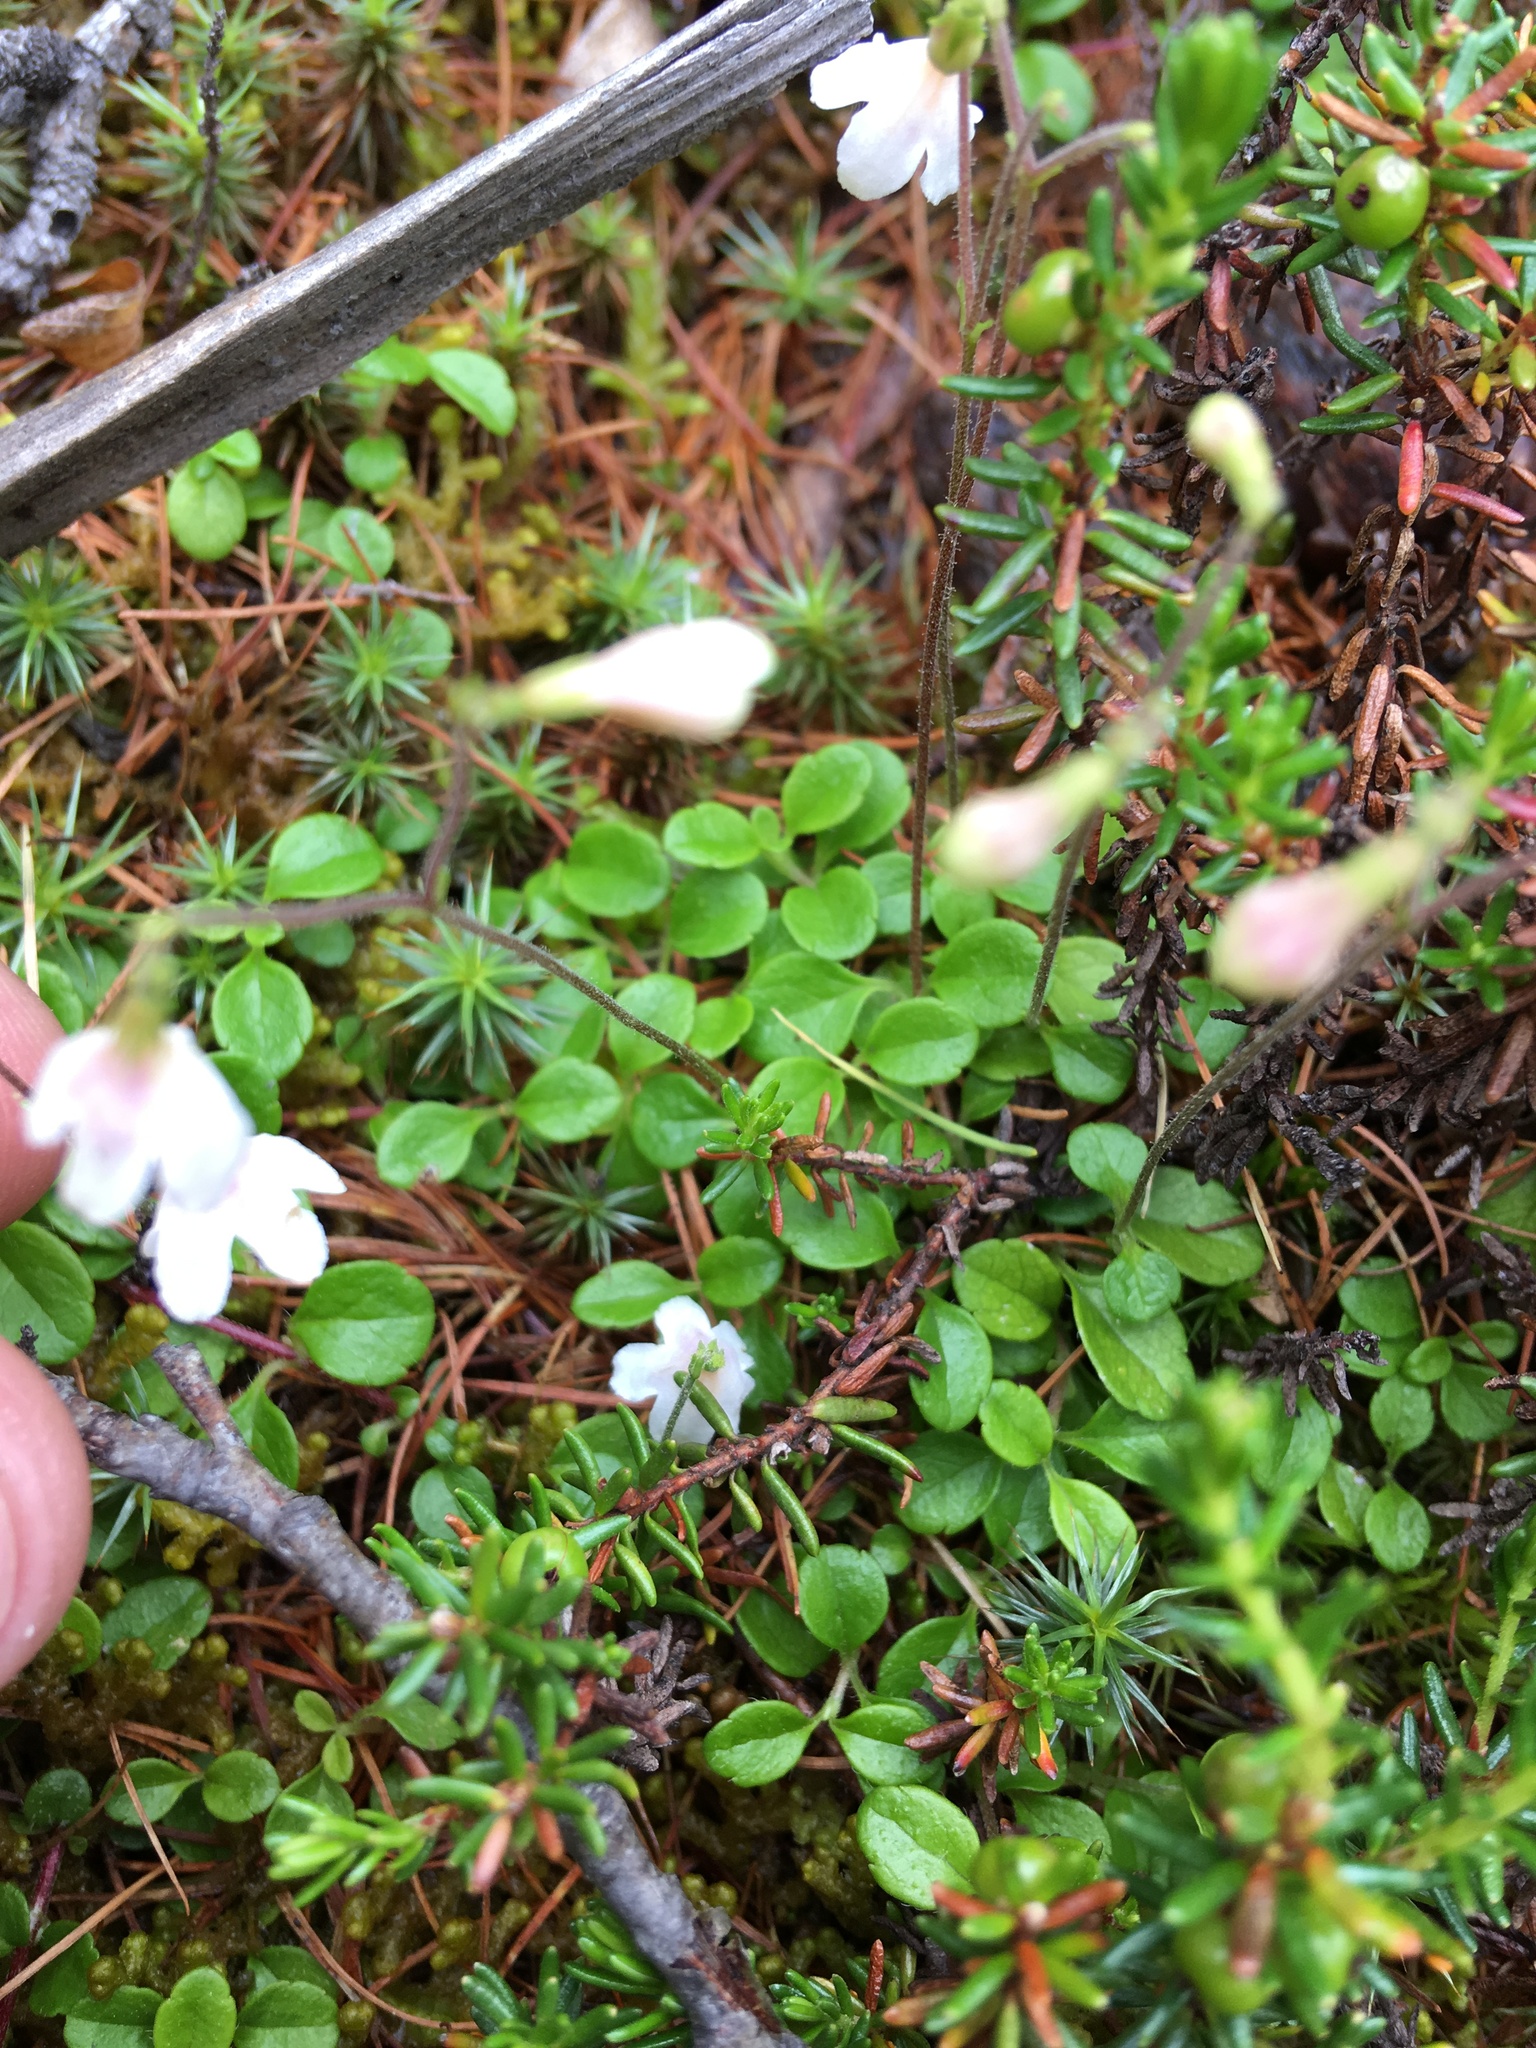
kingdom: Plantae
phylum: Tracheophyta
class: Magnoliopsida
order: Dipsacales
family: Caprifoliaceae
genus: Linnaea
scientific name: Linnaea borealis
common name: Twinflower
